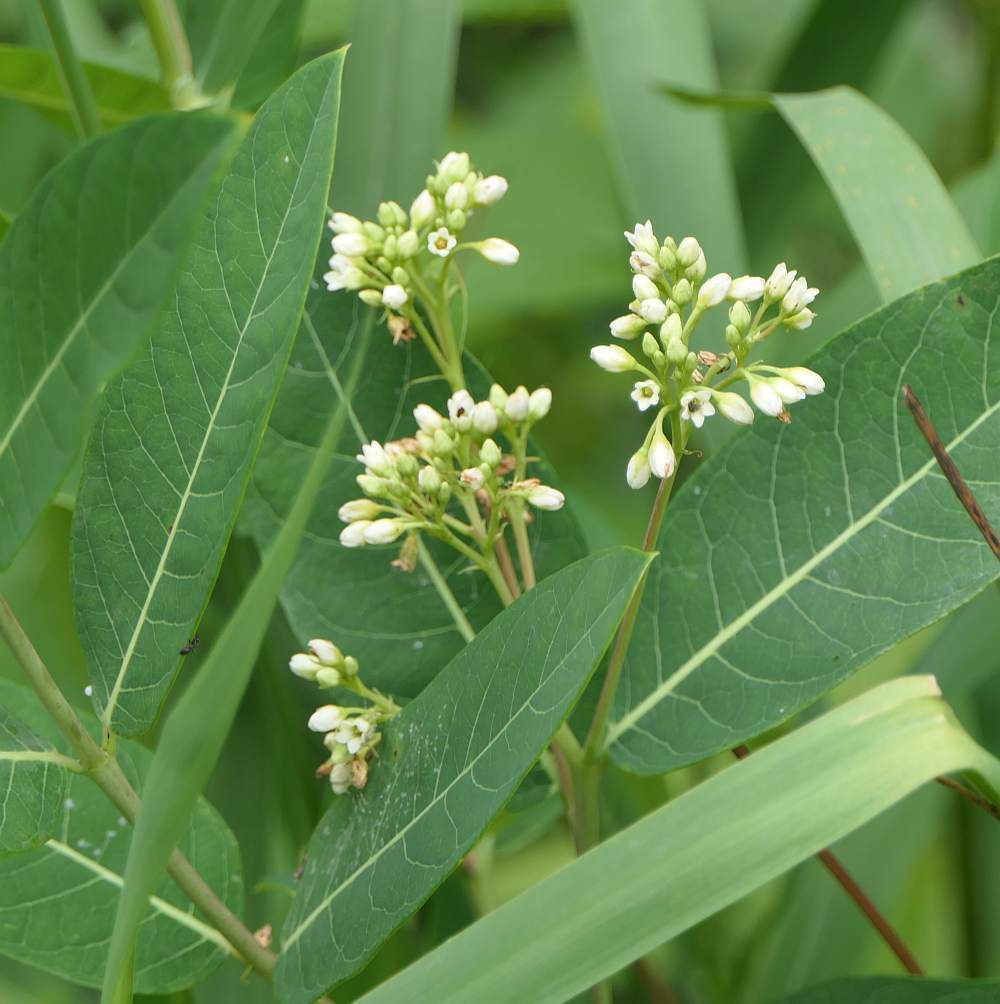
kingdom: Plantae
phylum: Tracheophyta
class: Magnoliopsida
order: Gentianales
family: Apocynaceae
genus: Apocynum
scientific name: Apocynum cannabinum
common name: Hemp dogbane
